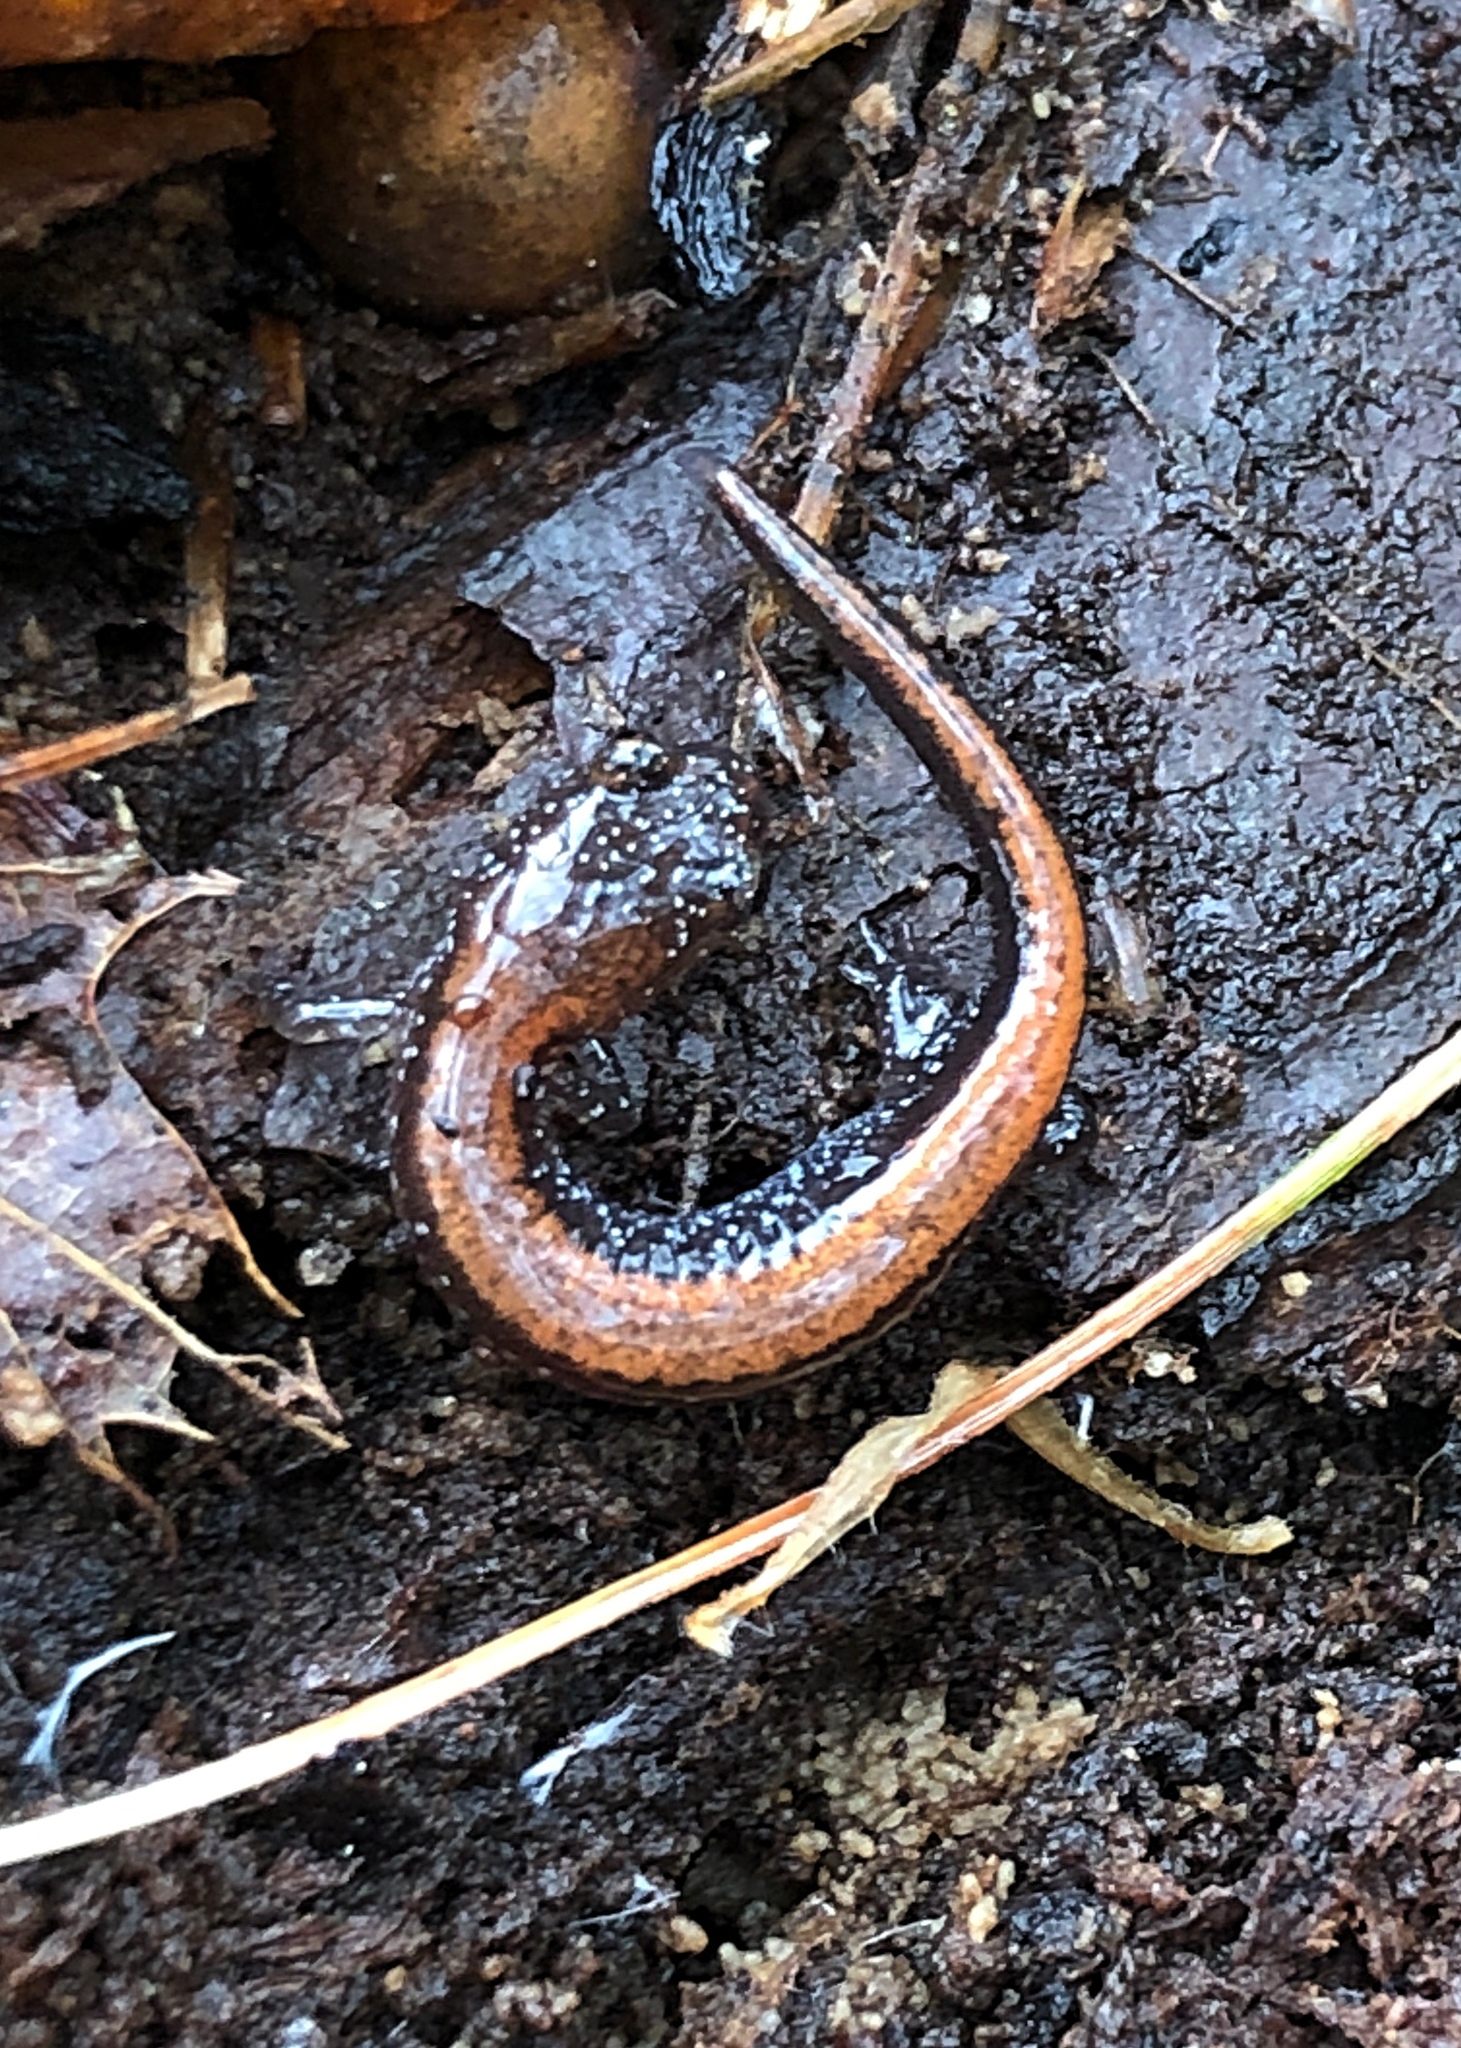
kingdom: Animalia
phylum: Chordata
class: Amphibia
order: Caudata
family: Plethodontidae
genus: Plethodon
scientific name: Plethodon cinereus
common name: Redback salamander
